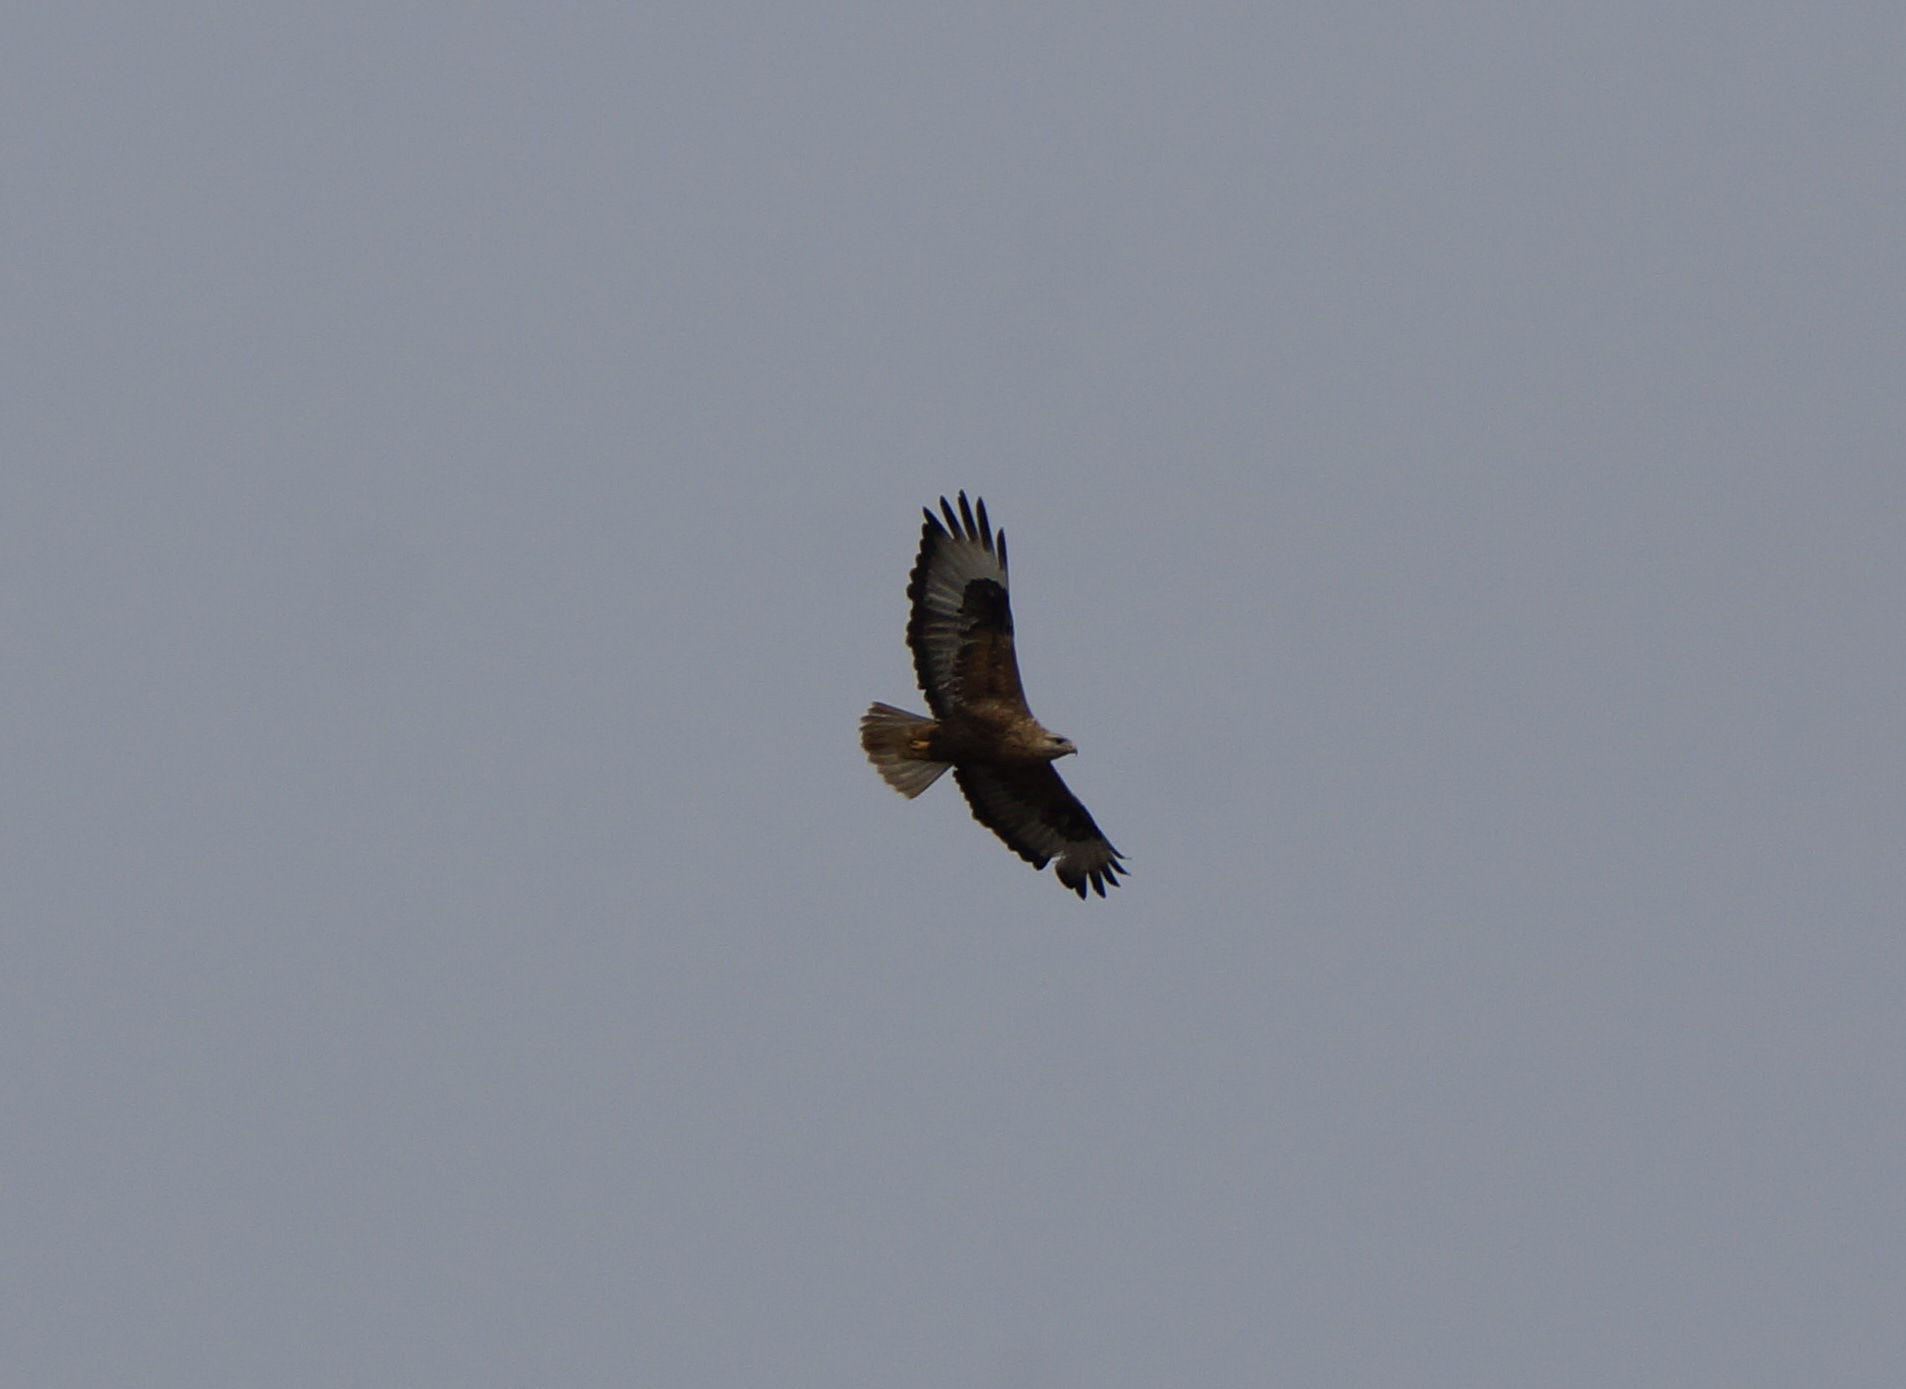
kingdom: Animalia
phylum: Chordata
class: Aves
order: Accipitriformes
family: Accipitridae
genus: Buteo
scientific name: Buteo rufinus
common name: Long-legged buzzard
